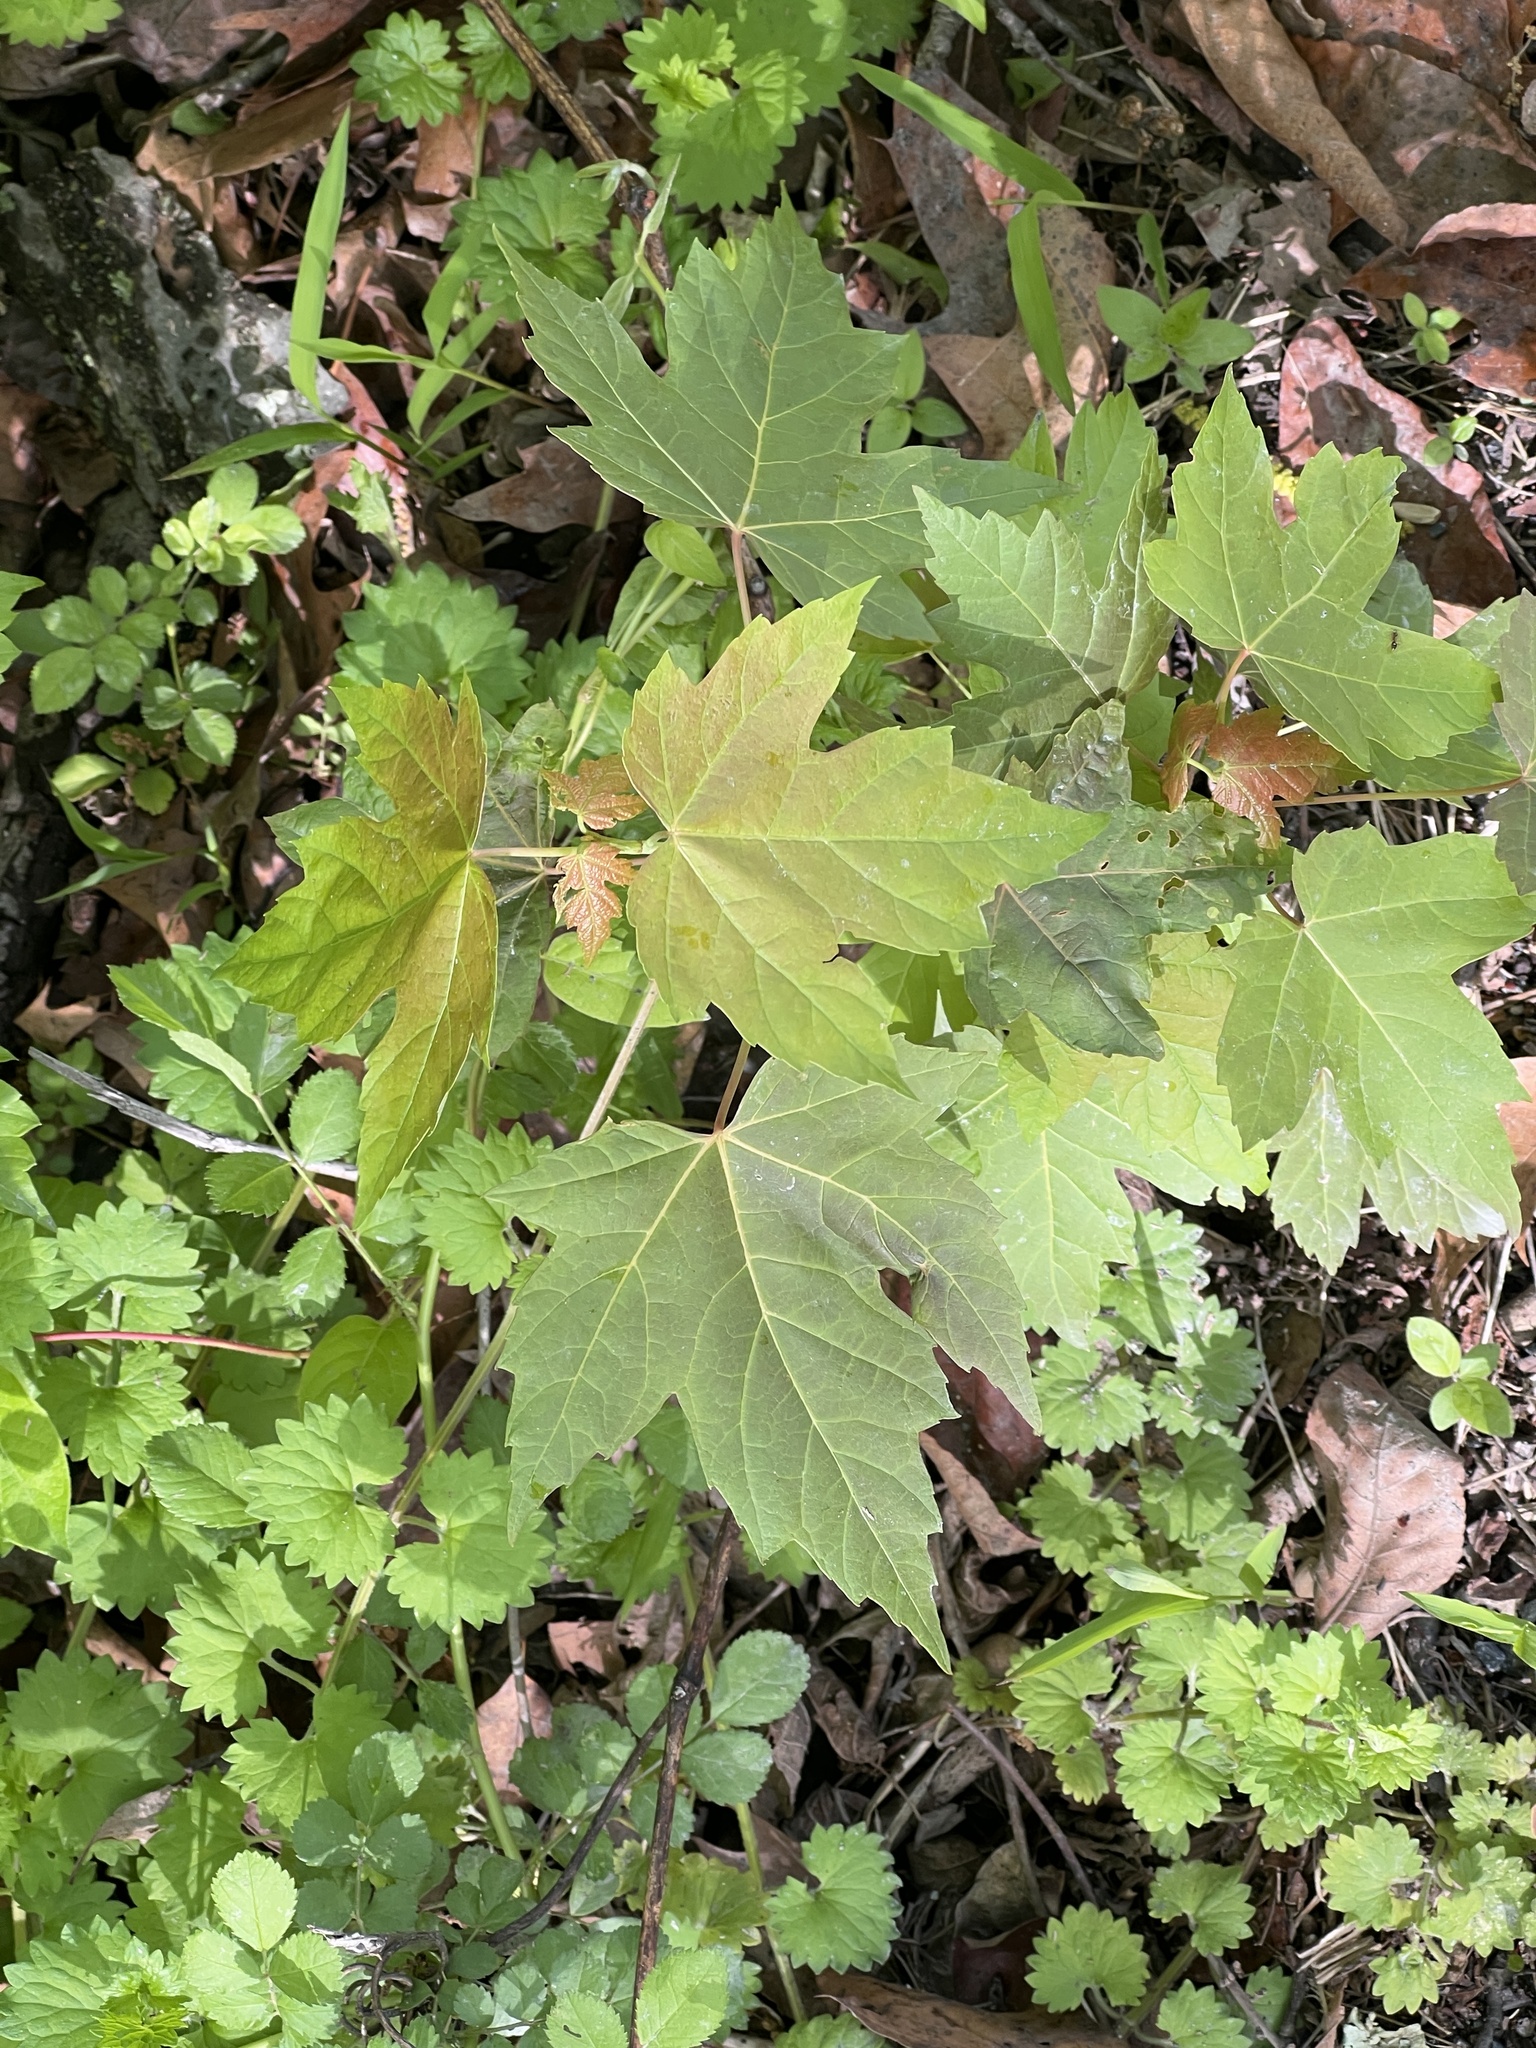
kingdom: Plantae
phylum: Tracheophyta
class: Magnoliopsida
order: Sapindales
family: Sapindaceae
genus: Acer
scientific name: Acer rubrum
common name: Red maple
